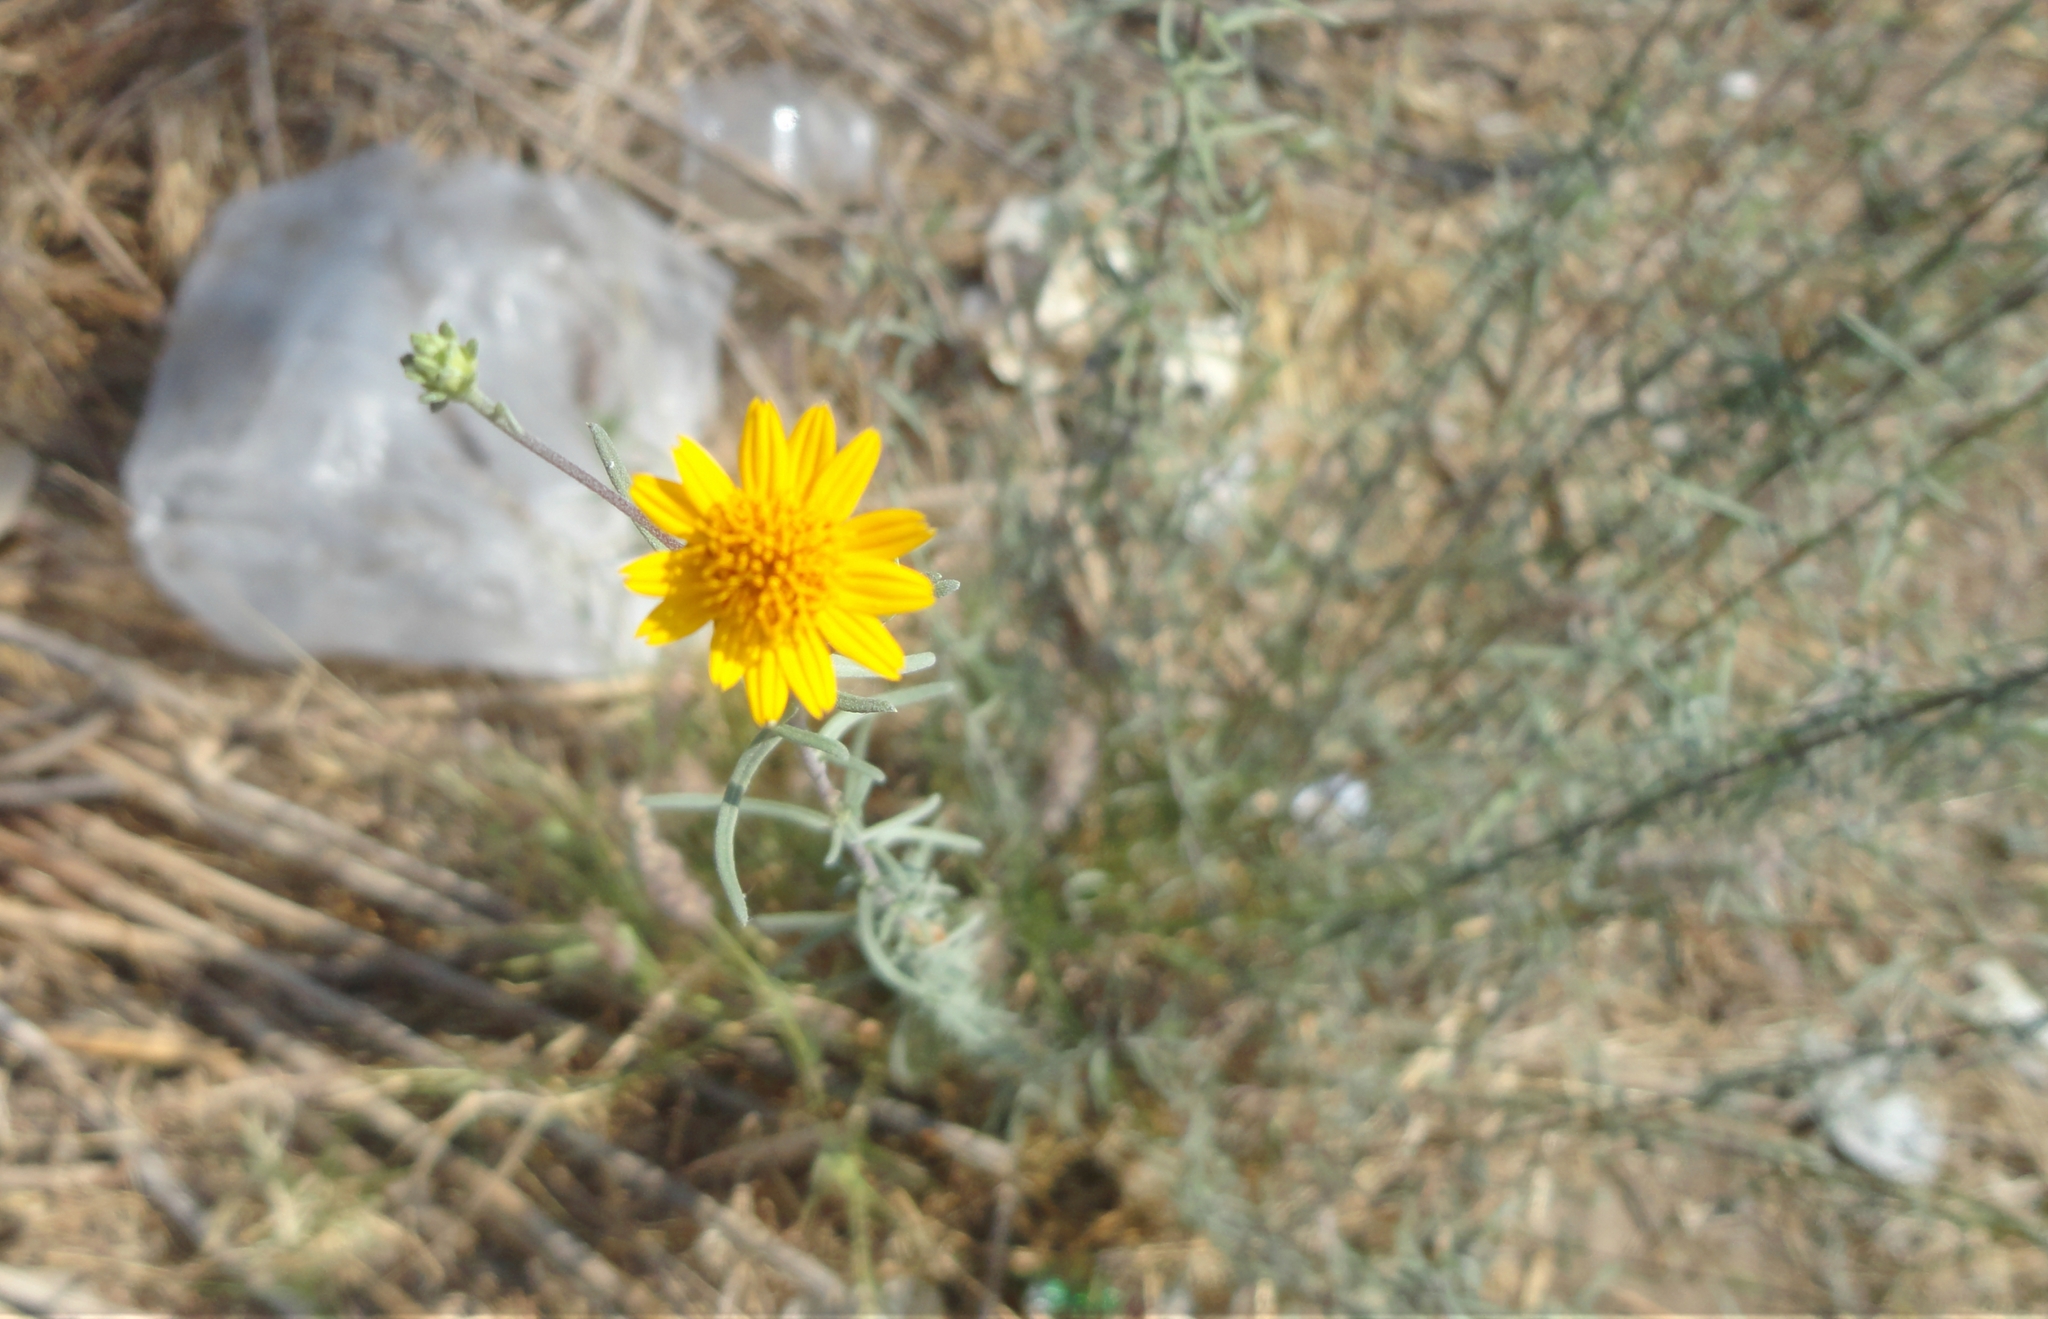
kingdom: Plantae
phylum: Tracheophyta
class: Magnoliopsida
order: Asterales
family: Asteraceae
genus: Aldama
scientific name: Aldama linearis
